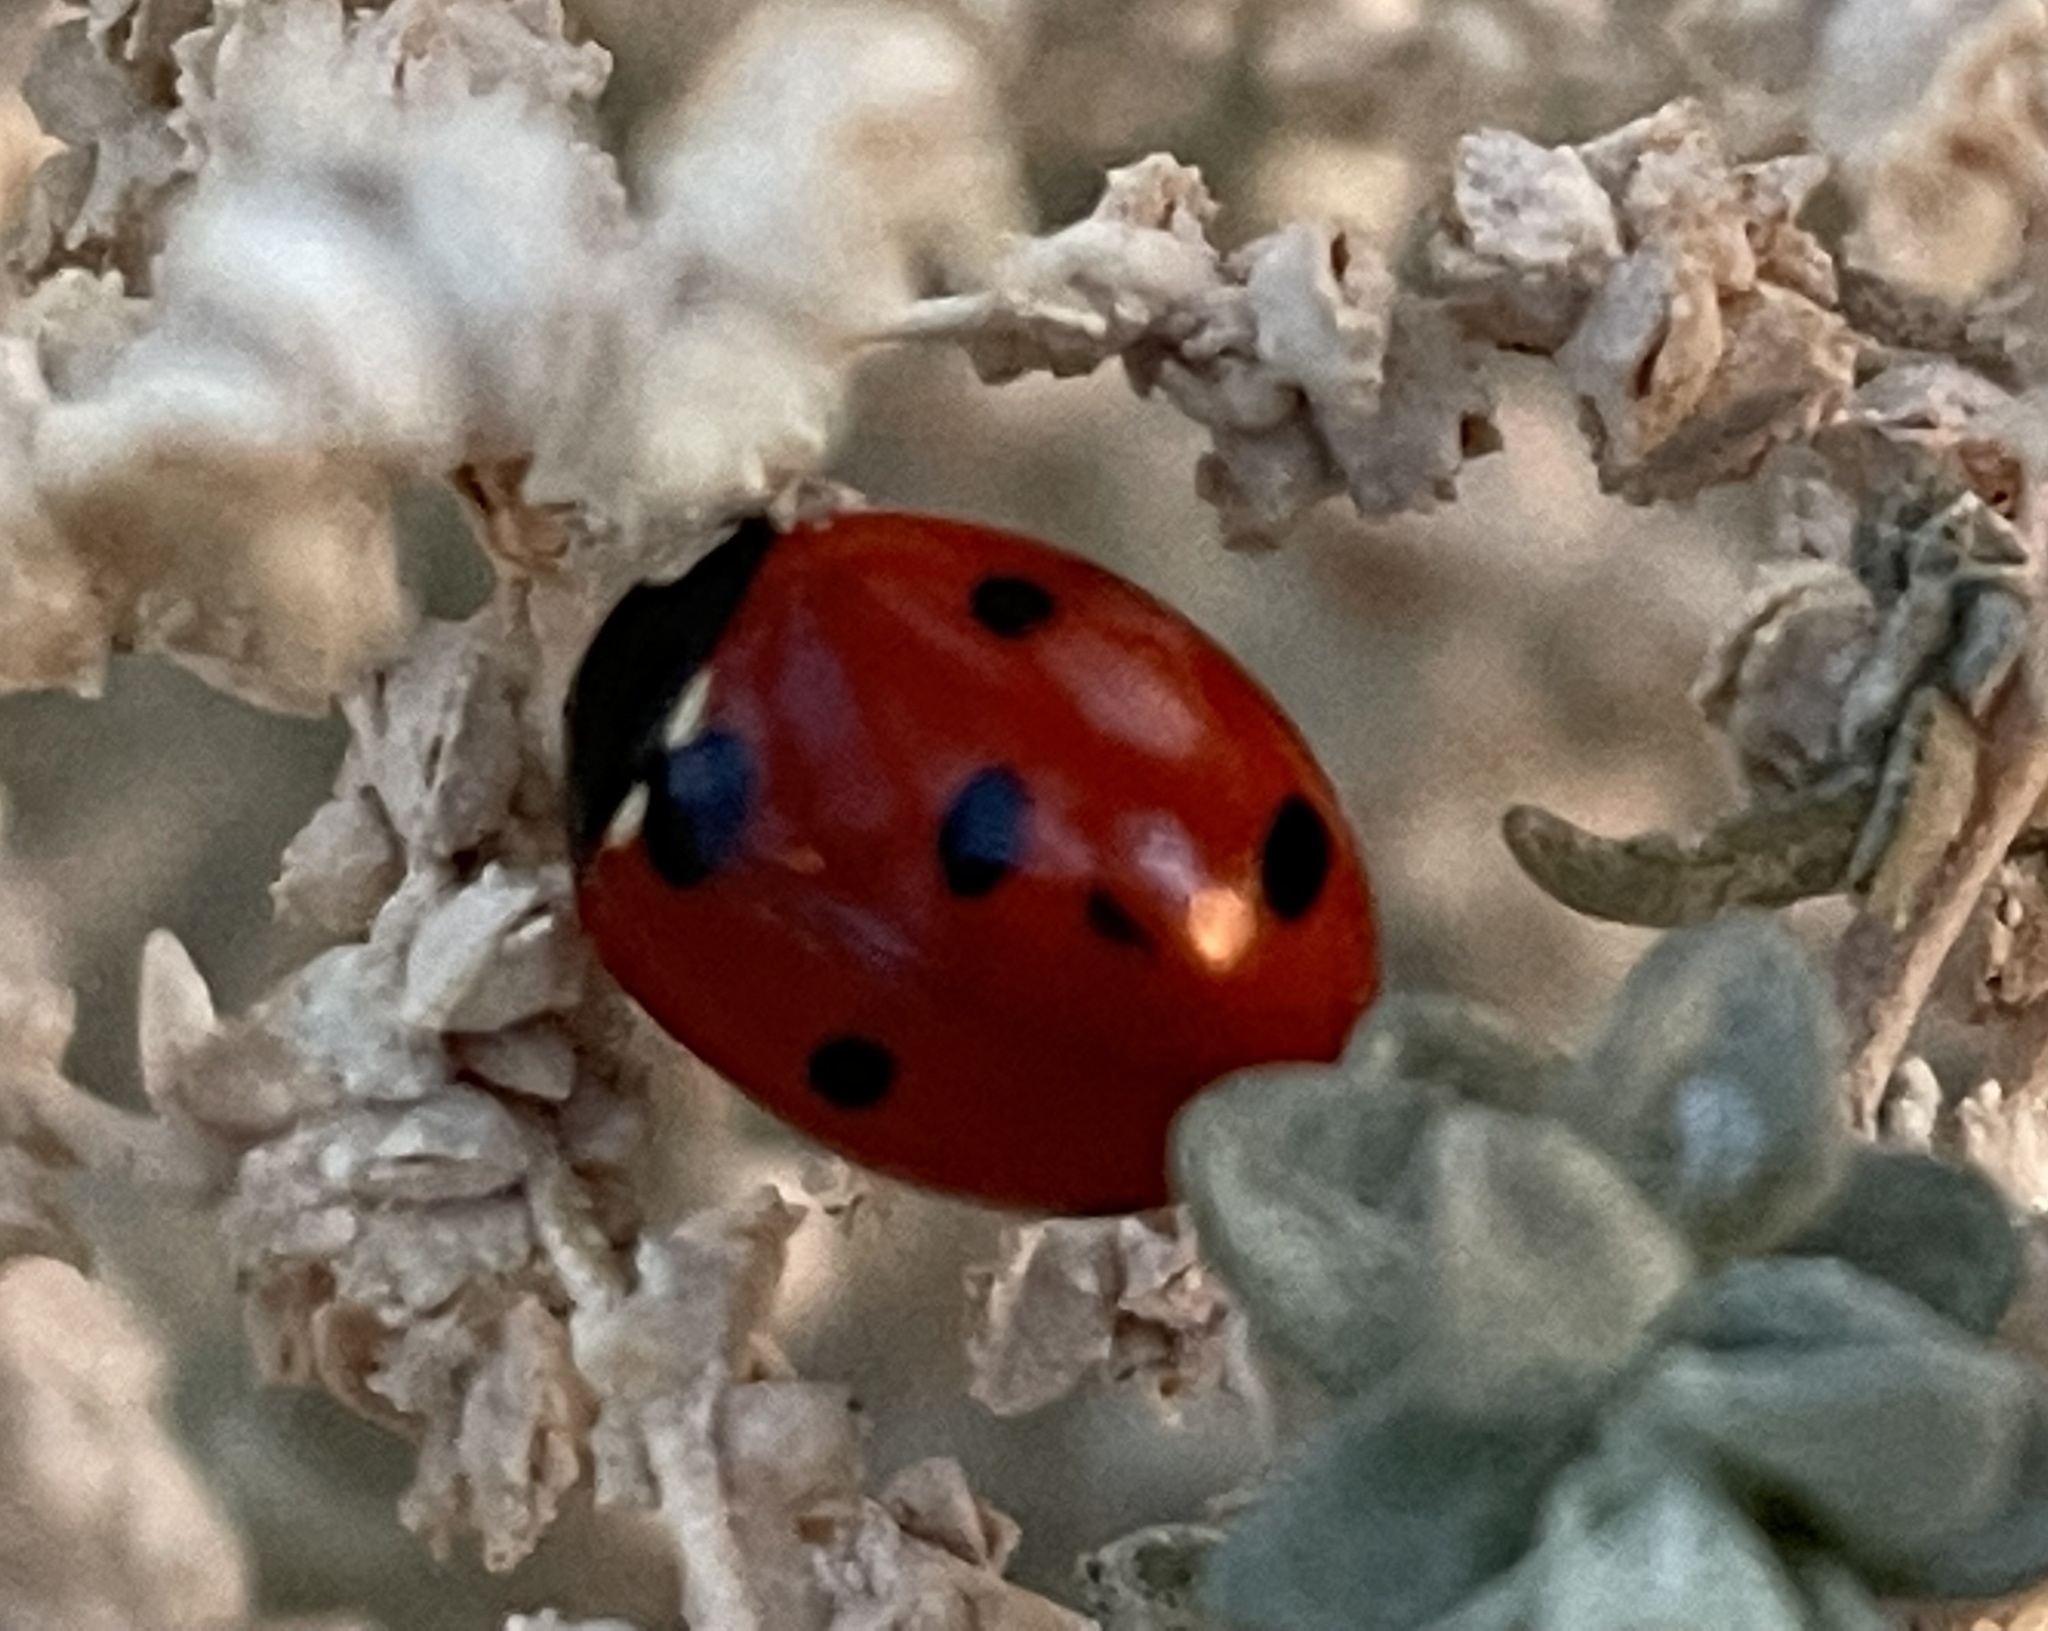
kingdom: Animalia
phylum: Arthropoda
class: Insecta
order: Coleoptera
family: Coccinellidae
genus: Coccinella
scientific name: Coccinella septempunctata
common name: Sevenspotted lady beetle
